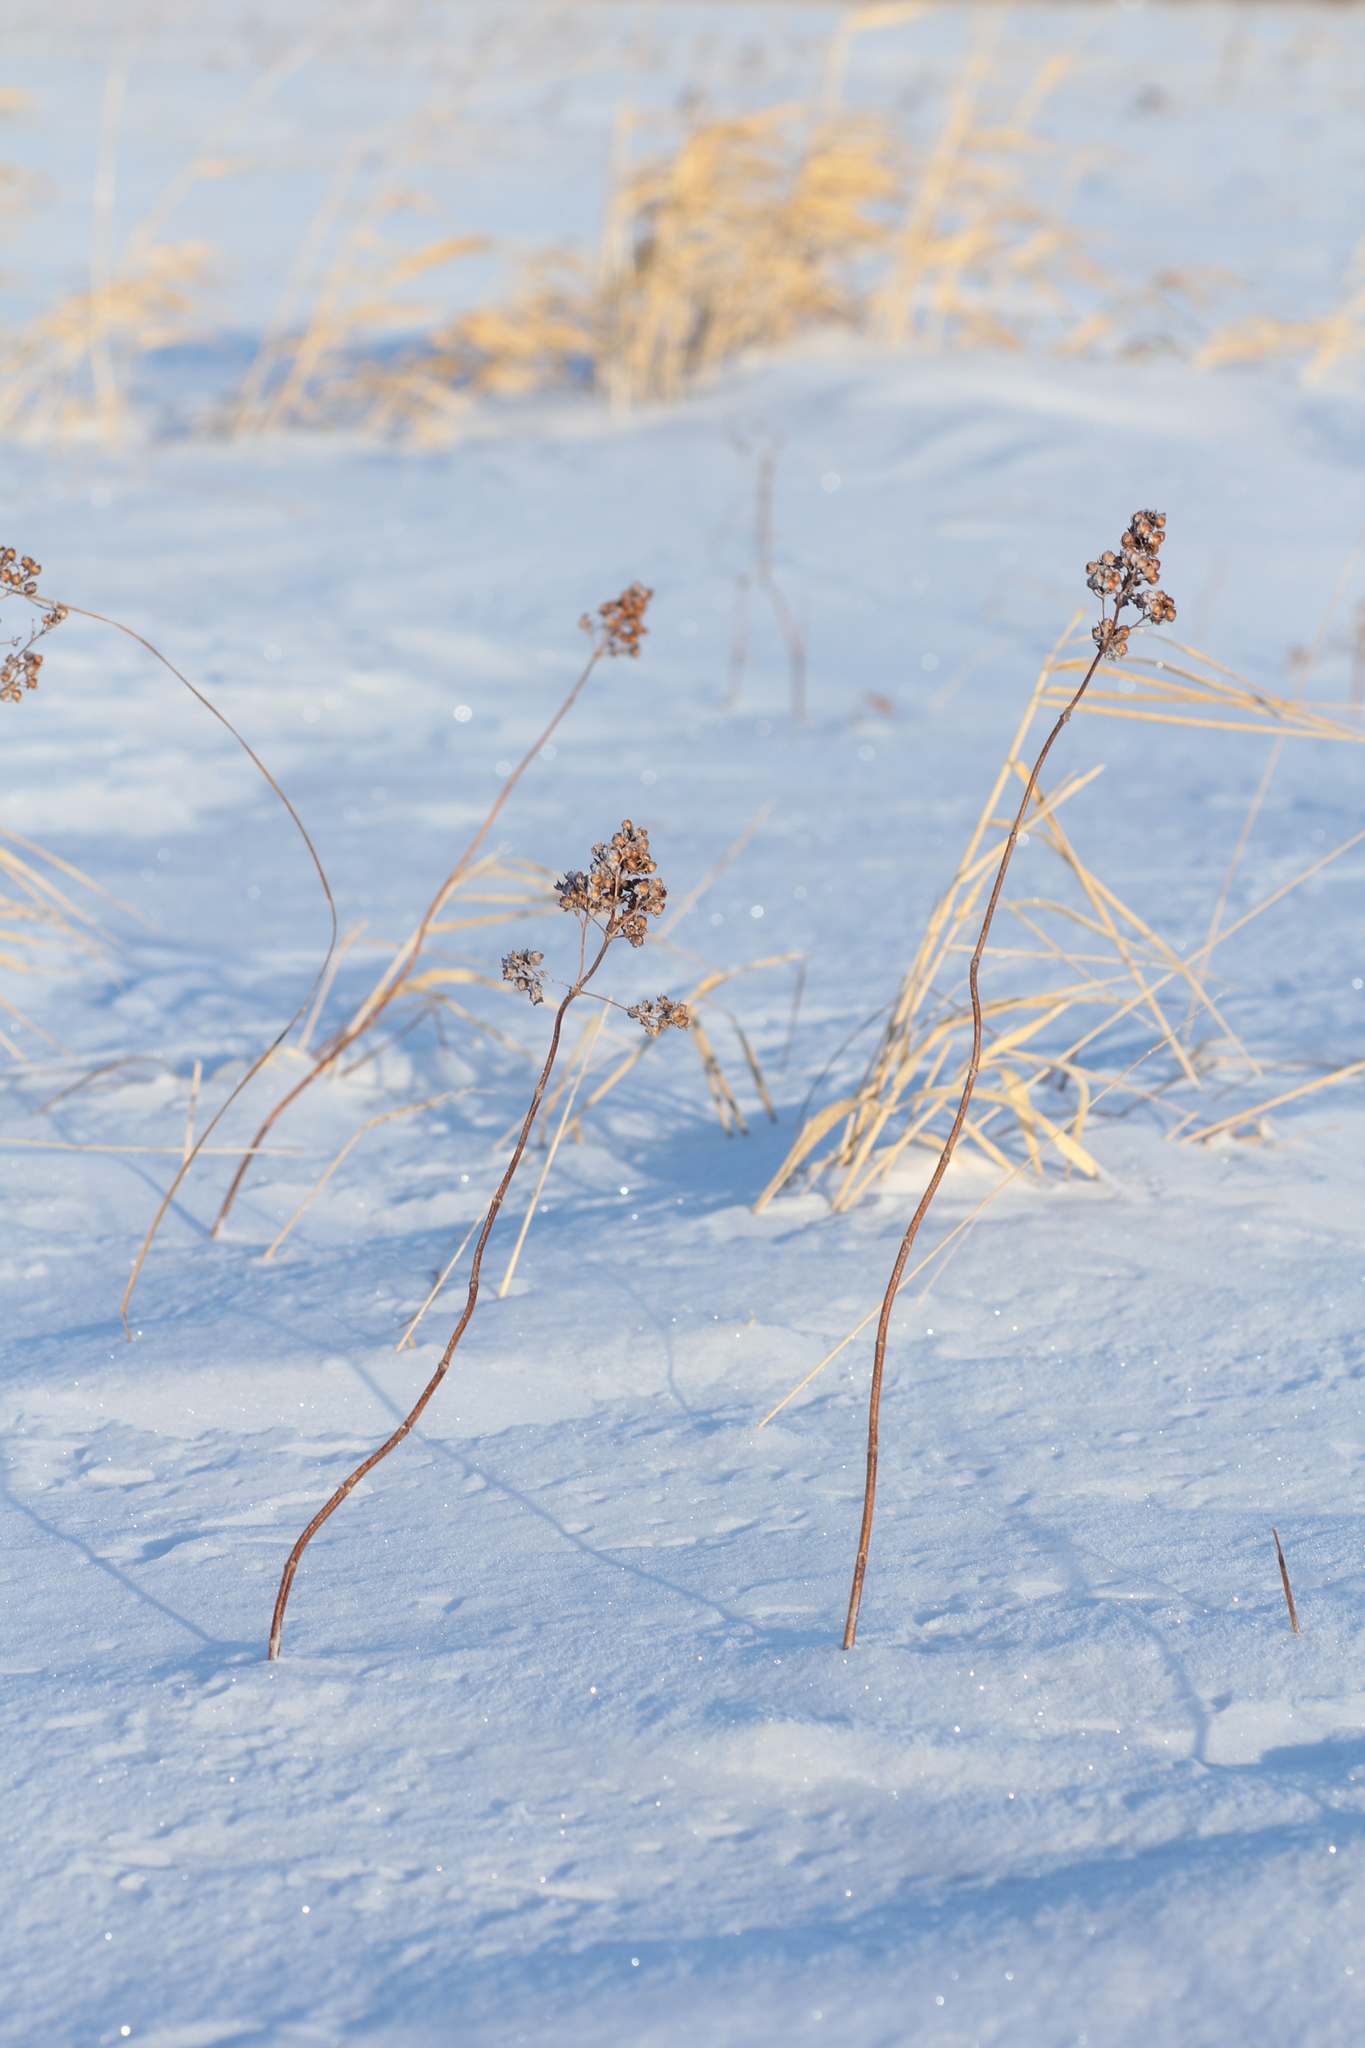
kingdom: Plantae
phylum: Tracheophyta
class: Magnoliopsida
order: Ericales
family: Primulaceae
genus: Lysimachia
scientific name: Lysimachia vulgaris
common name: Yellow loosestrife
